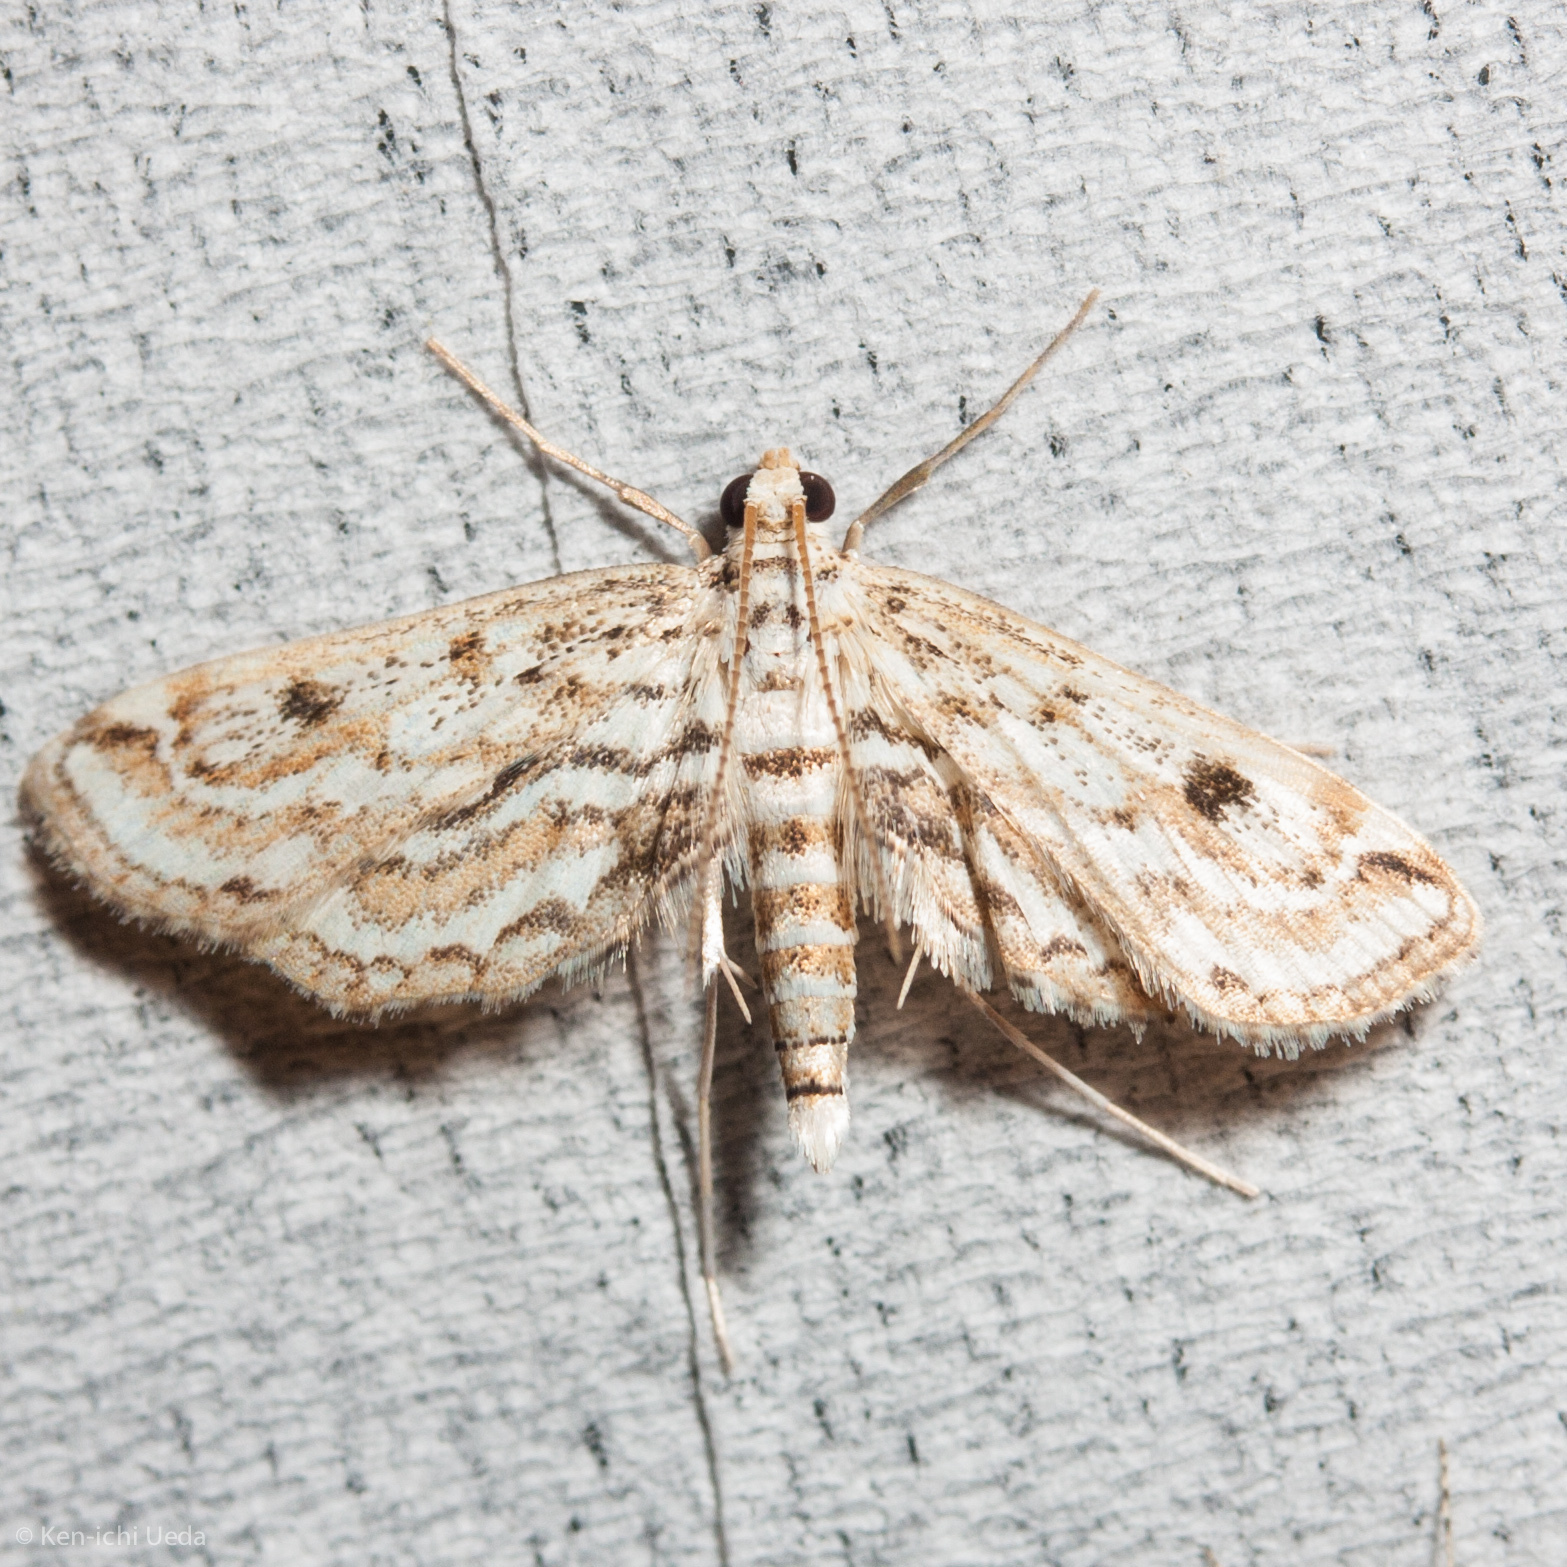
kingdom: Animalia
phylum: Arthropoda
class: Insecta
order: Lepidoptera
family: Crambidae
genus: Parapoynx
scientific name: Parapoynx allionealis
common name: Bladderwort casemaker
